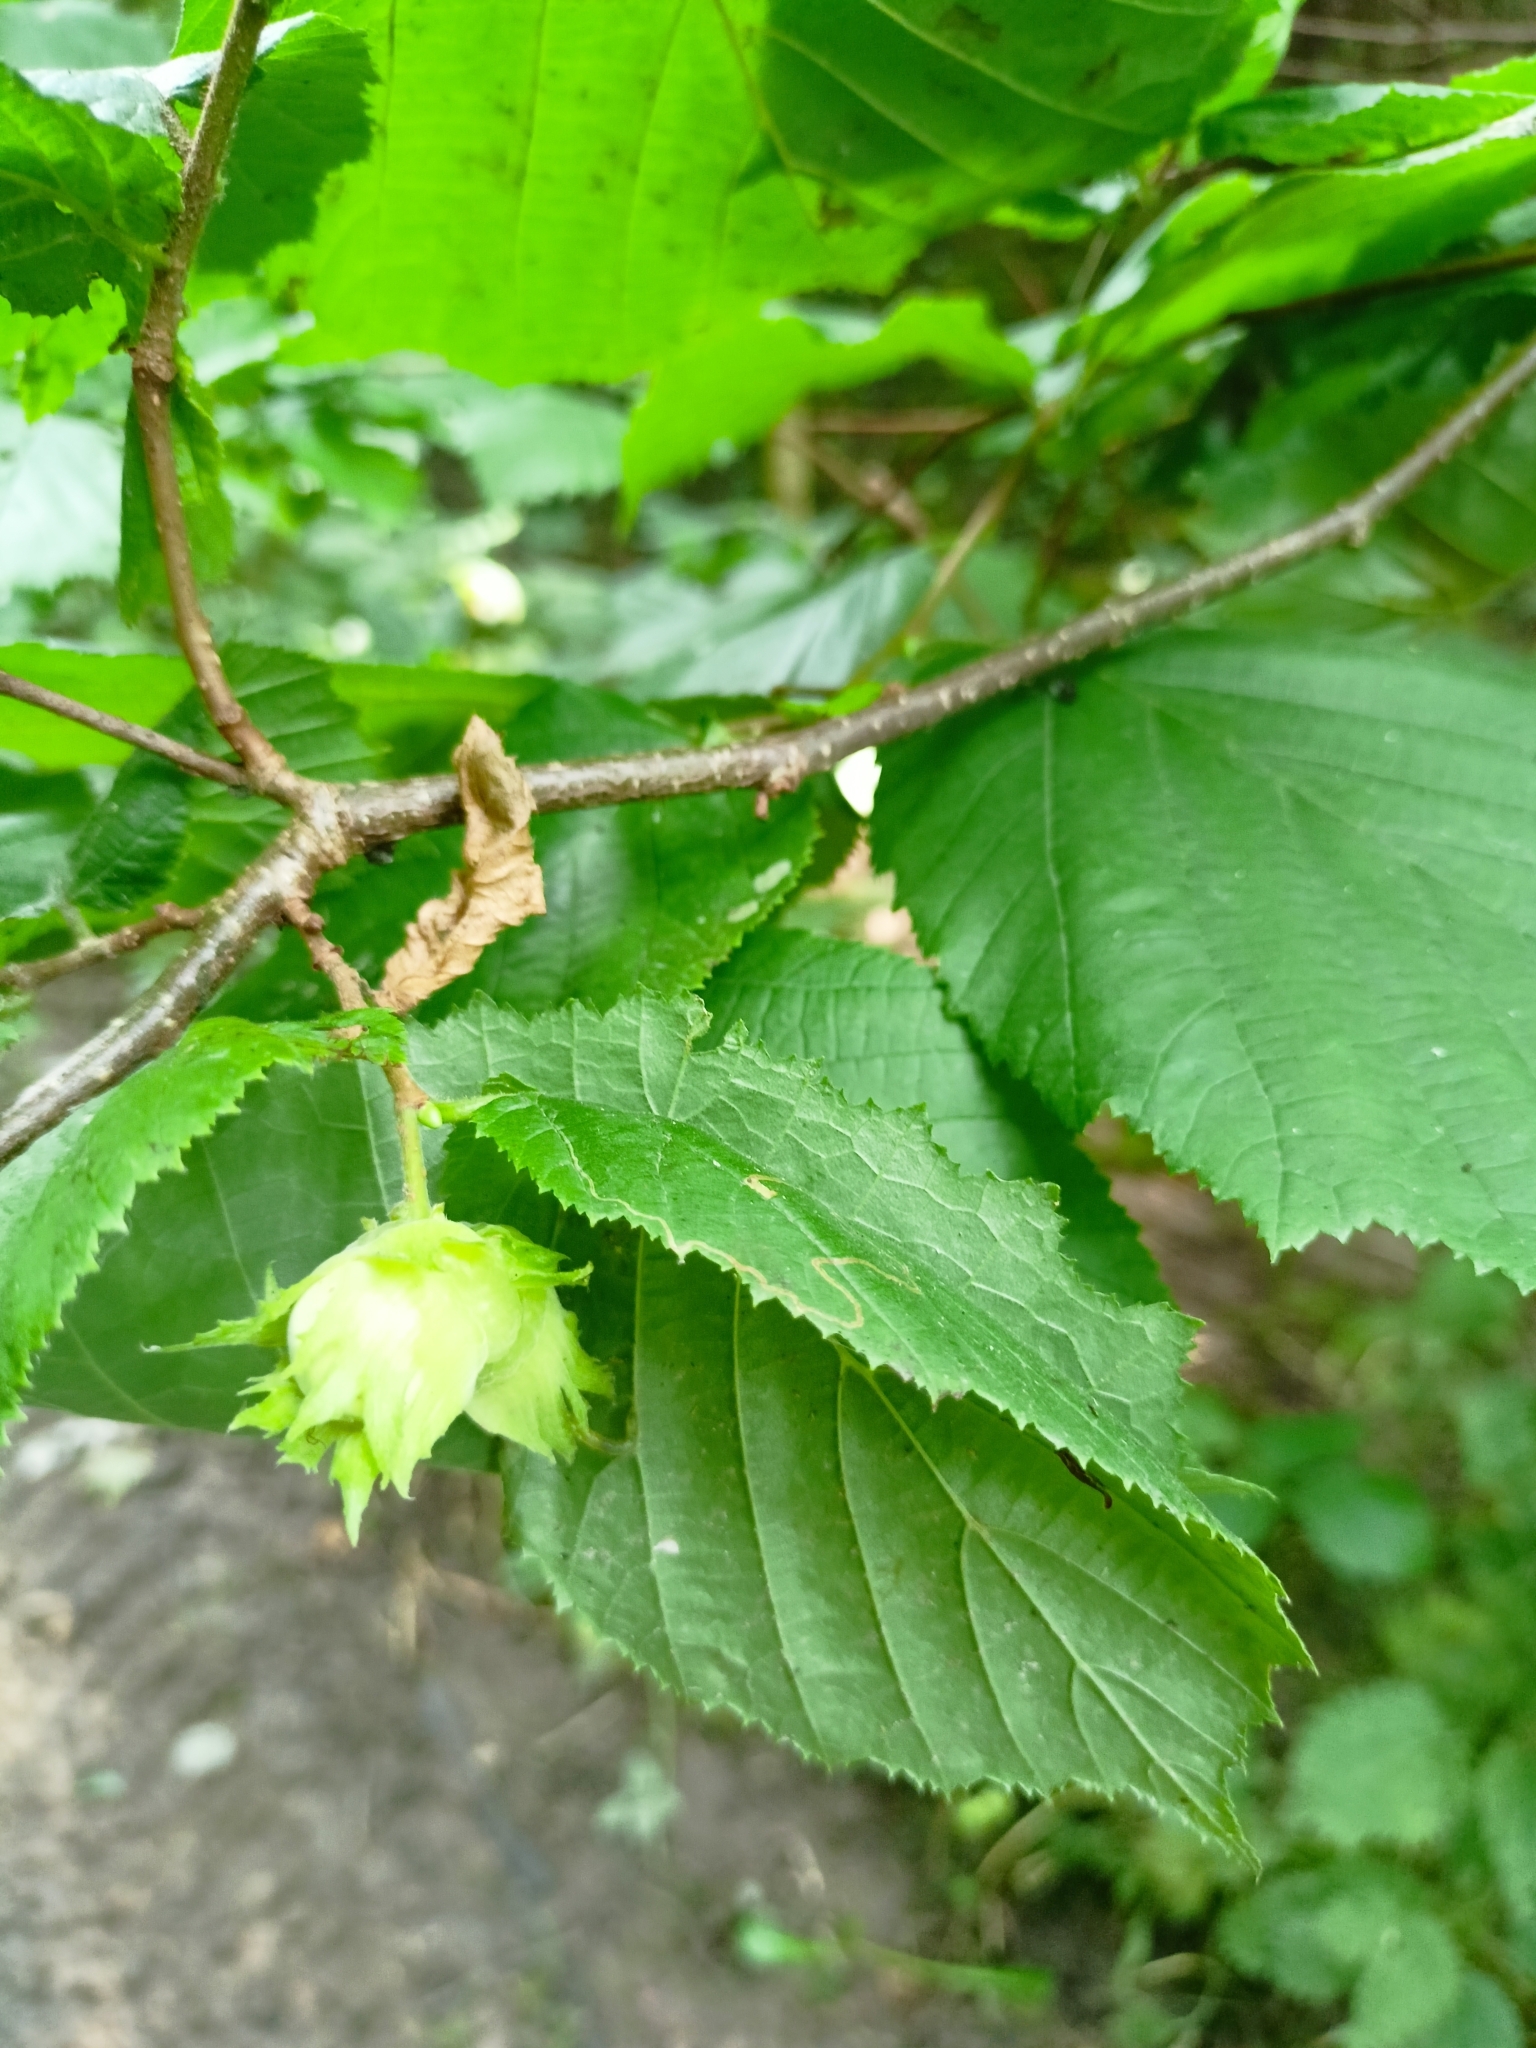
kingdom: Plantae
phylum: Tracheophyta
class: Magnoliopsida
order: Fagales
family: Betulaceae
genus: Corylus
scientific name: Corylus avellana
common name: European hazel
